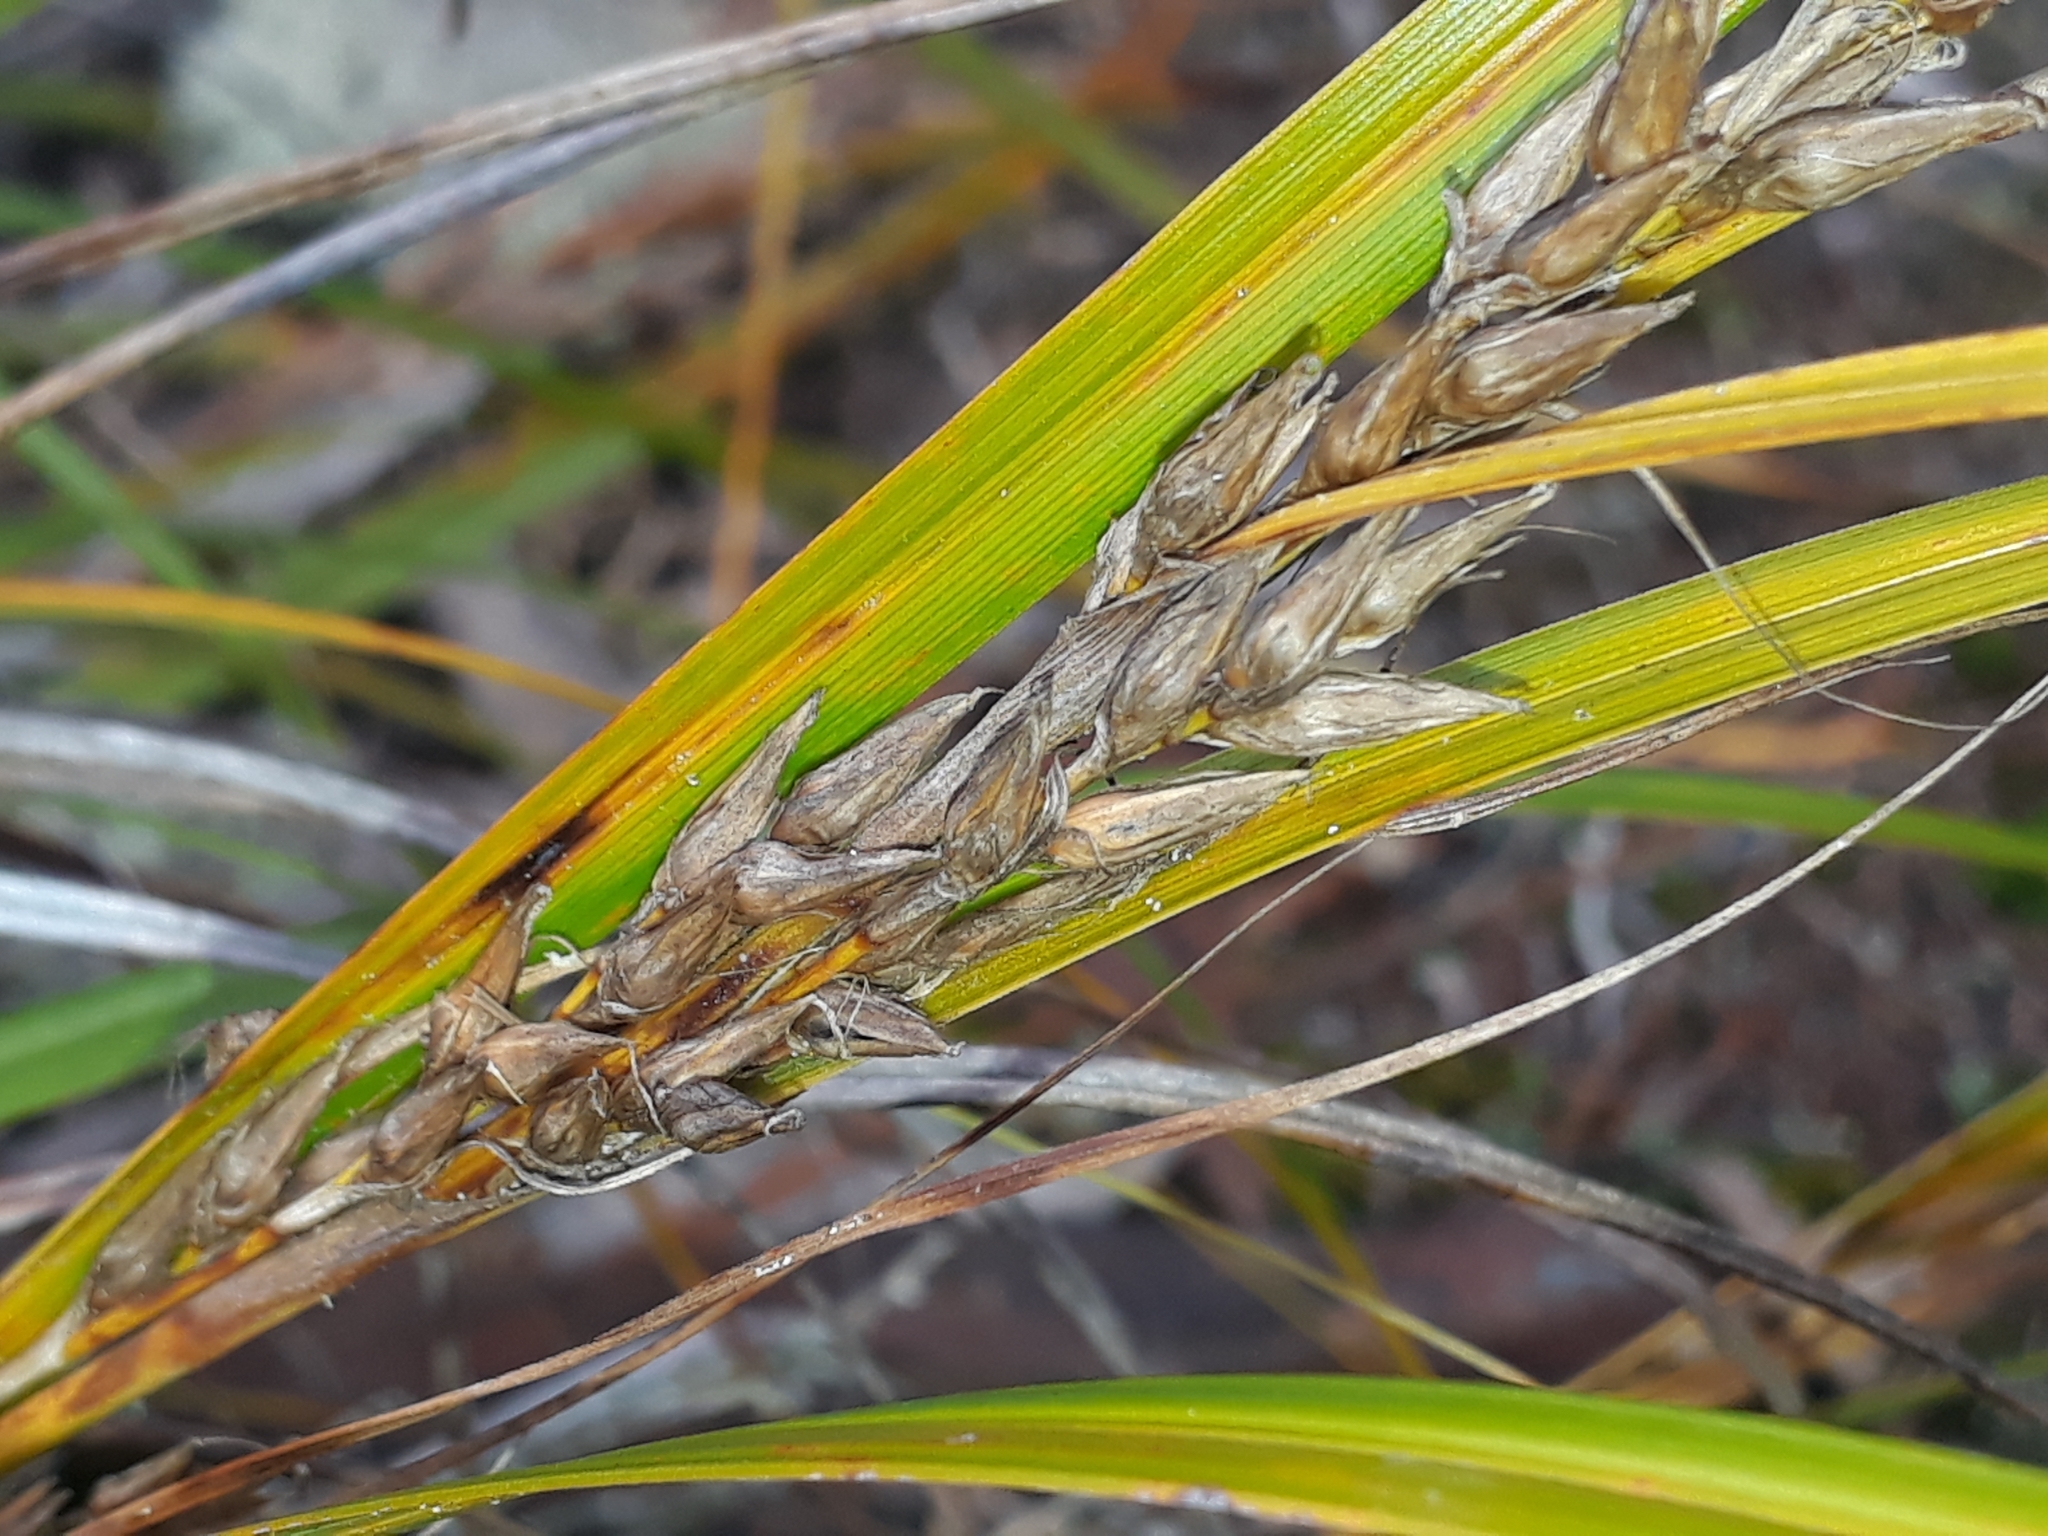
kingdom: Plantae
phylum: Tracheophyta
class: Liliopsida
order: Poales
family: Cyperaceae
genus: Morelotia
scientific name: Morelotia affinis
